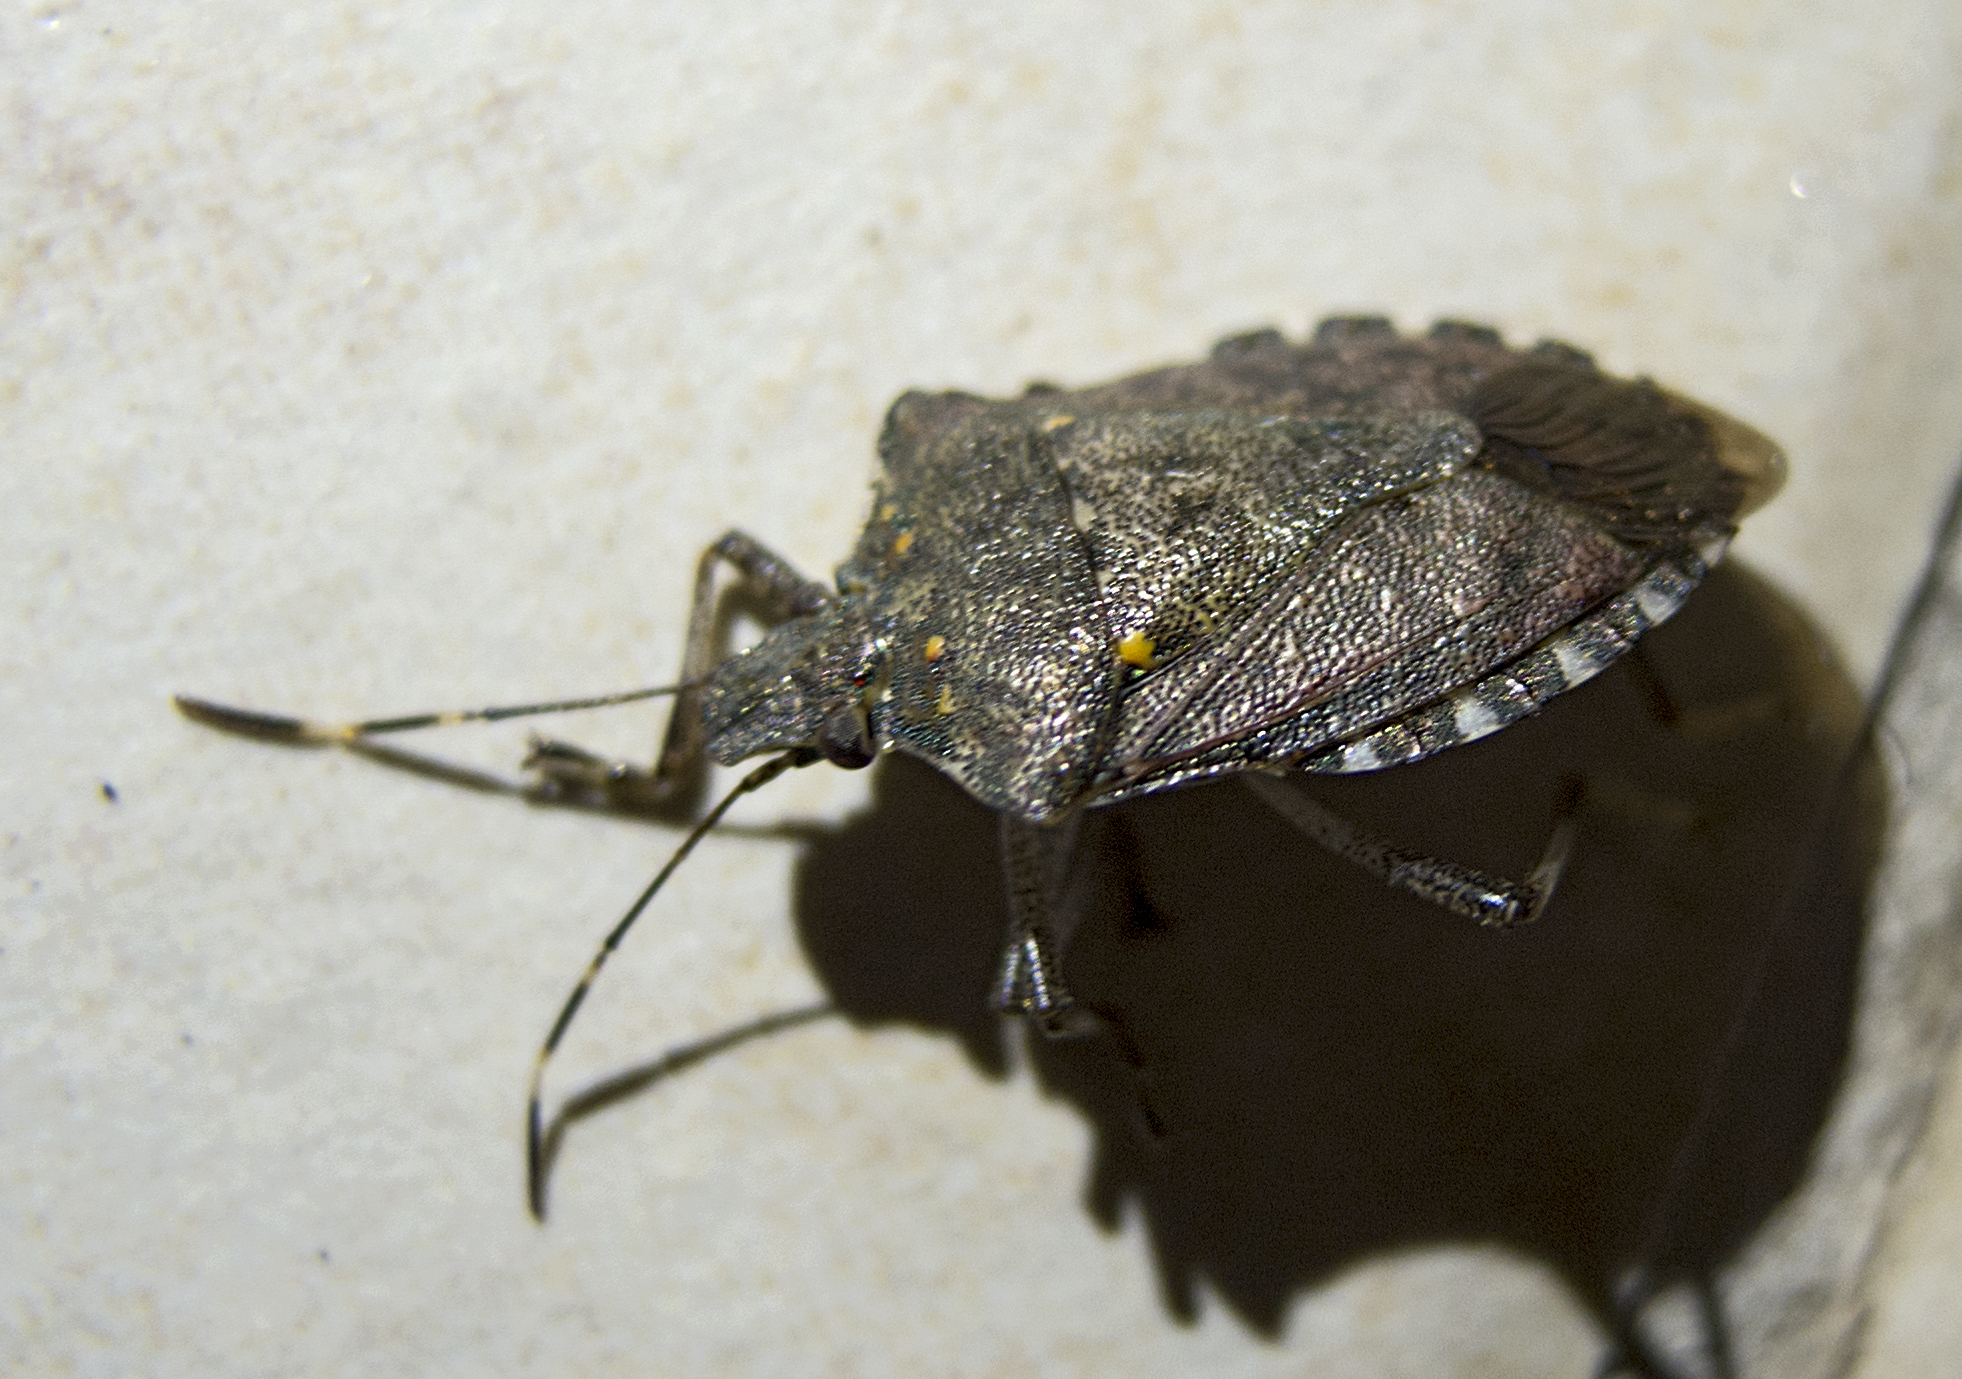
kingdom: Animalia
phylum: Arthropoda
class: Insecta
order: Hemiptera
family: Pentatomidae
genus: Halyomorpha
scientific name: Halyomorpha halys
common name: Brown marmorated stink bug
